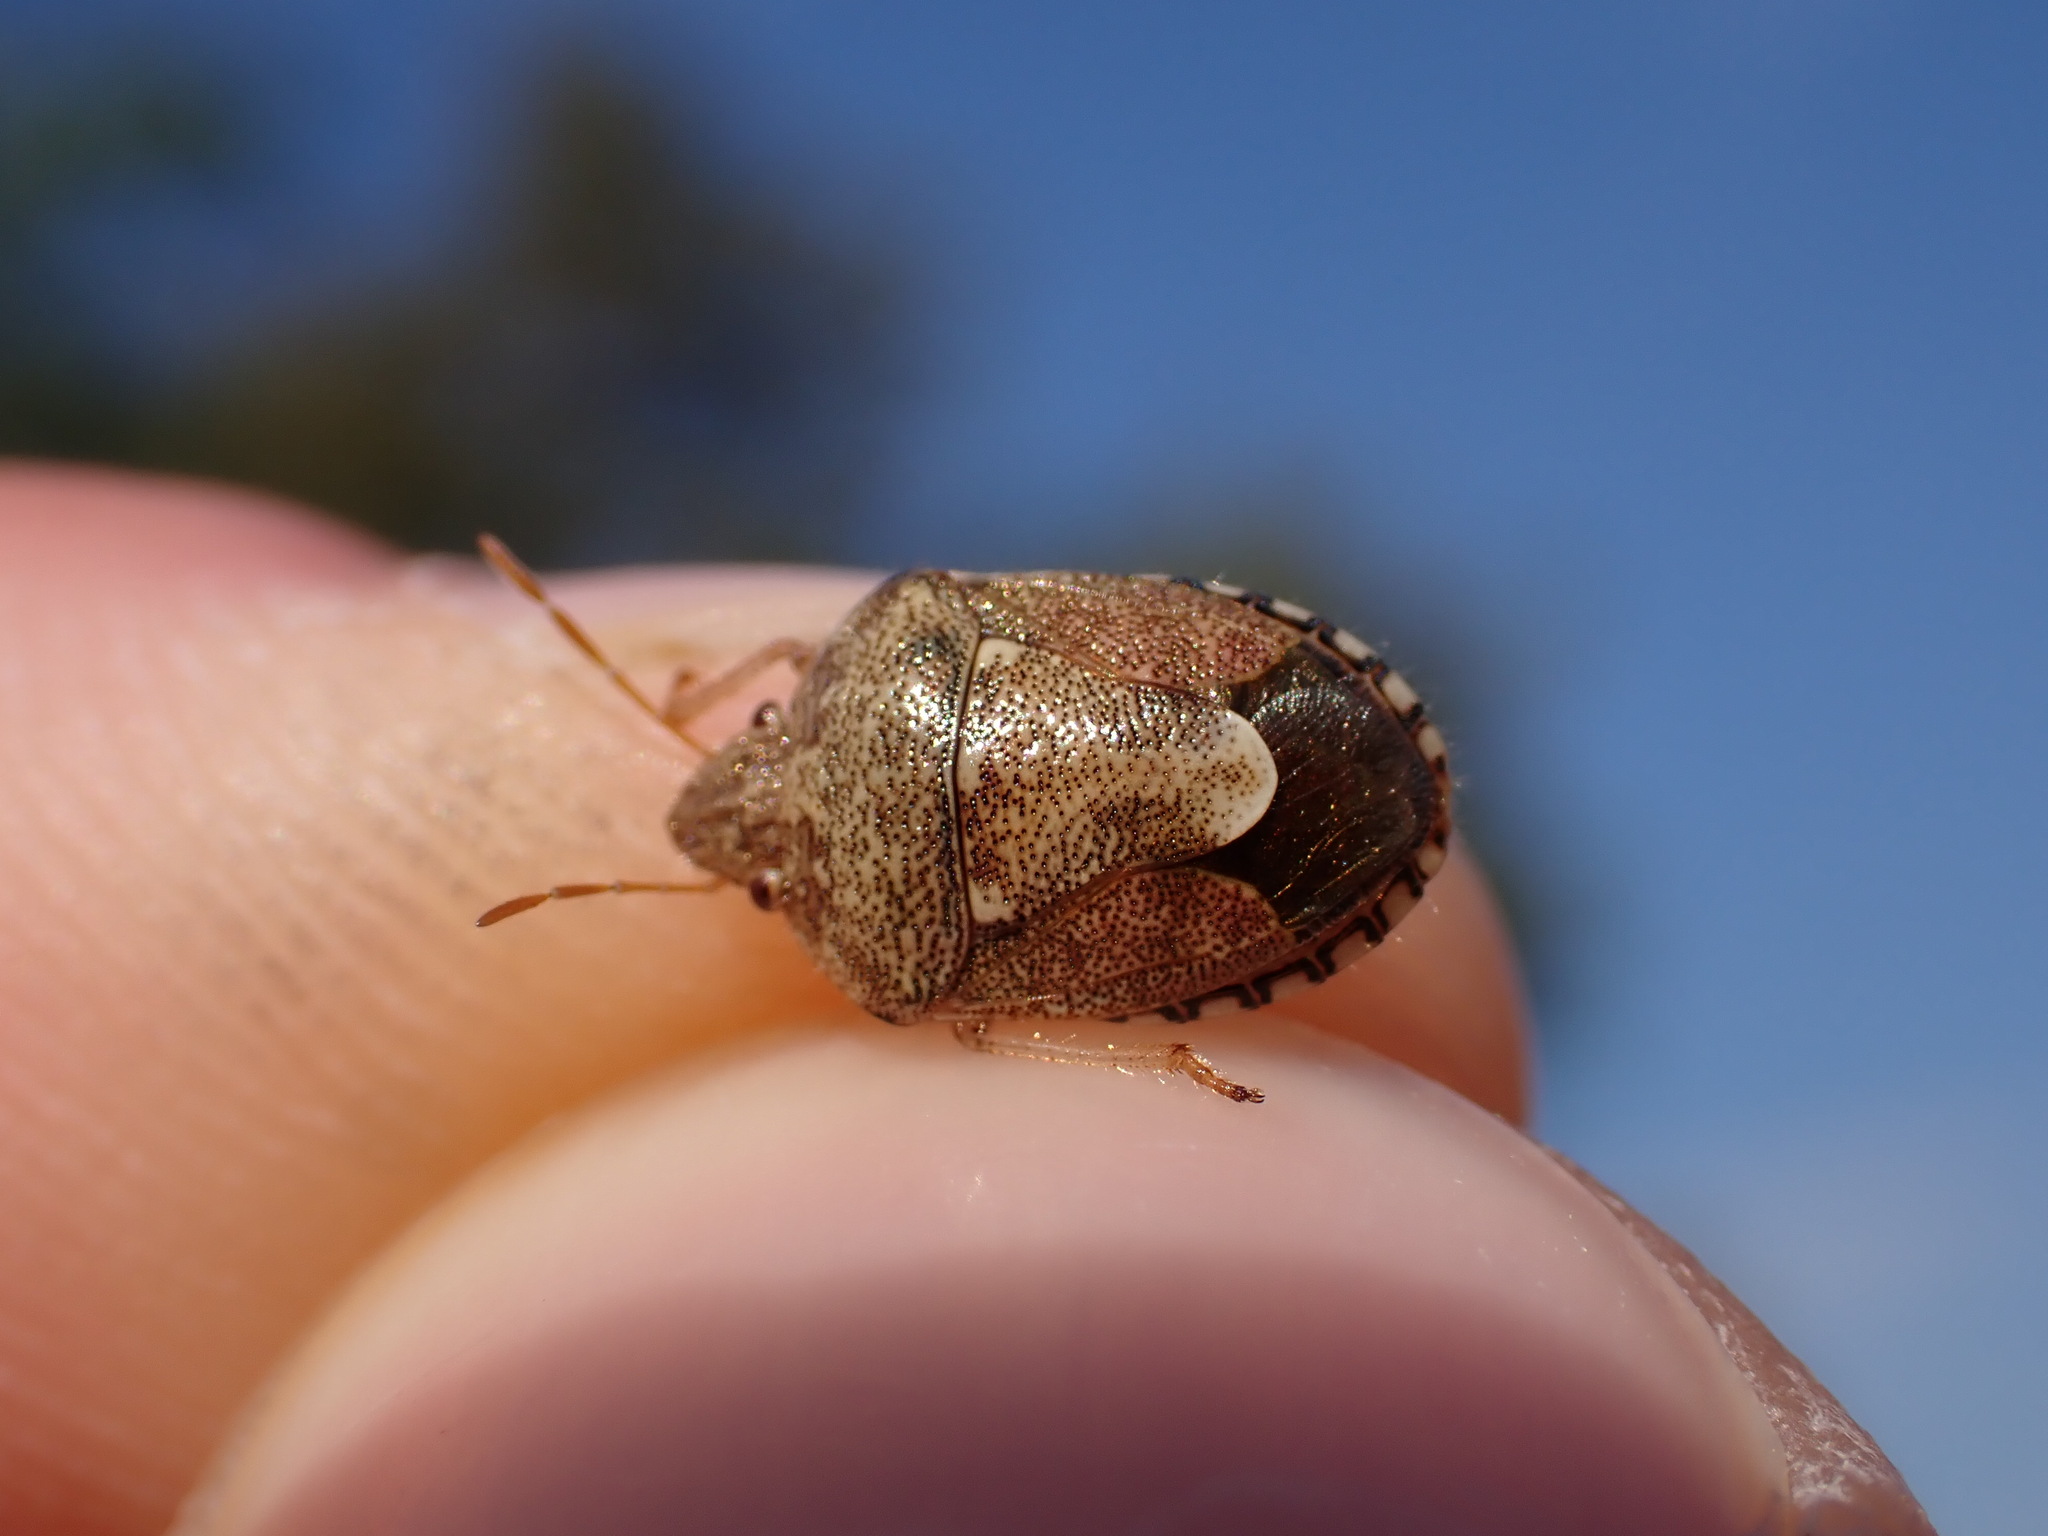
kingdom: Animalia
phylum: Arthropoda
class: Insecta
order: Hemiptera
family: Pentatomidae
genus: Staria
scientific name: Staria lunata
